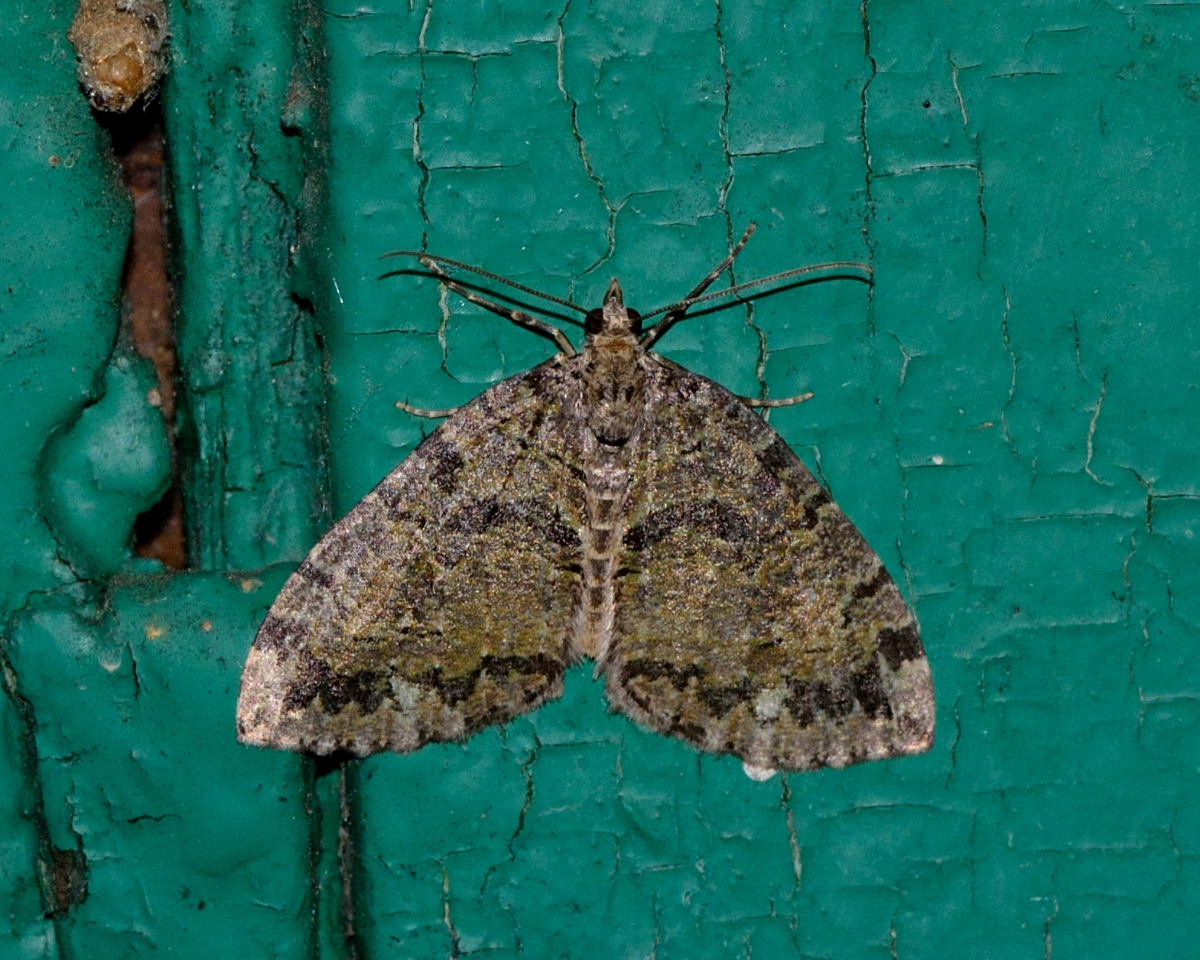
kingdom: Animalia
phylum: Arthropoda
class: Insecta
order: Lepidoptera
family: Geometridae
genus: Hydriomena
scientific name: Hydriomena furcata
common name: July highflyer
